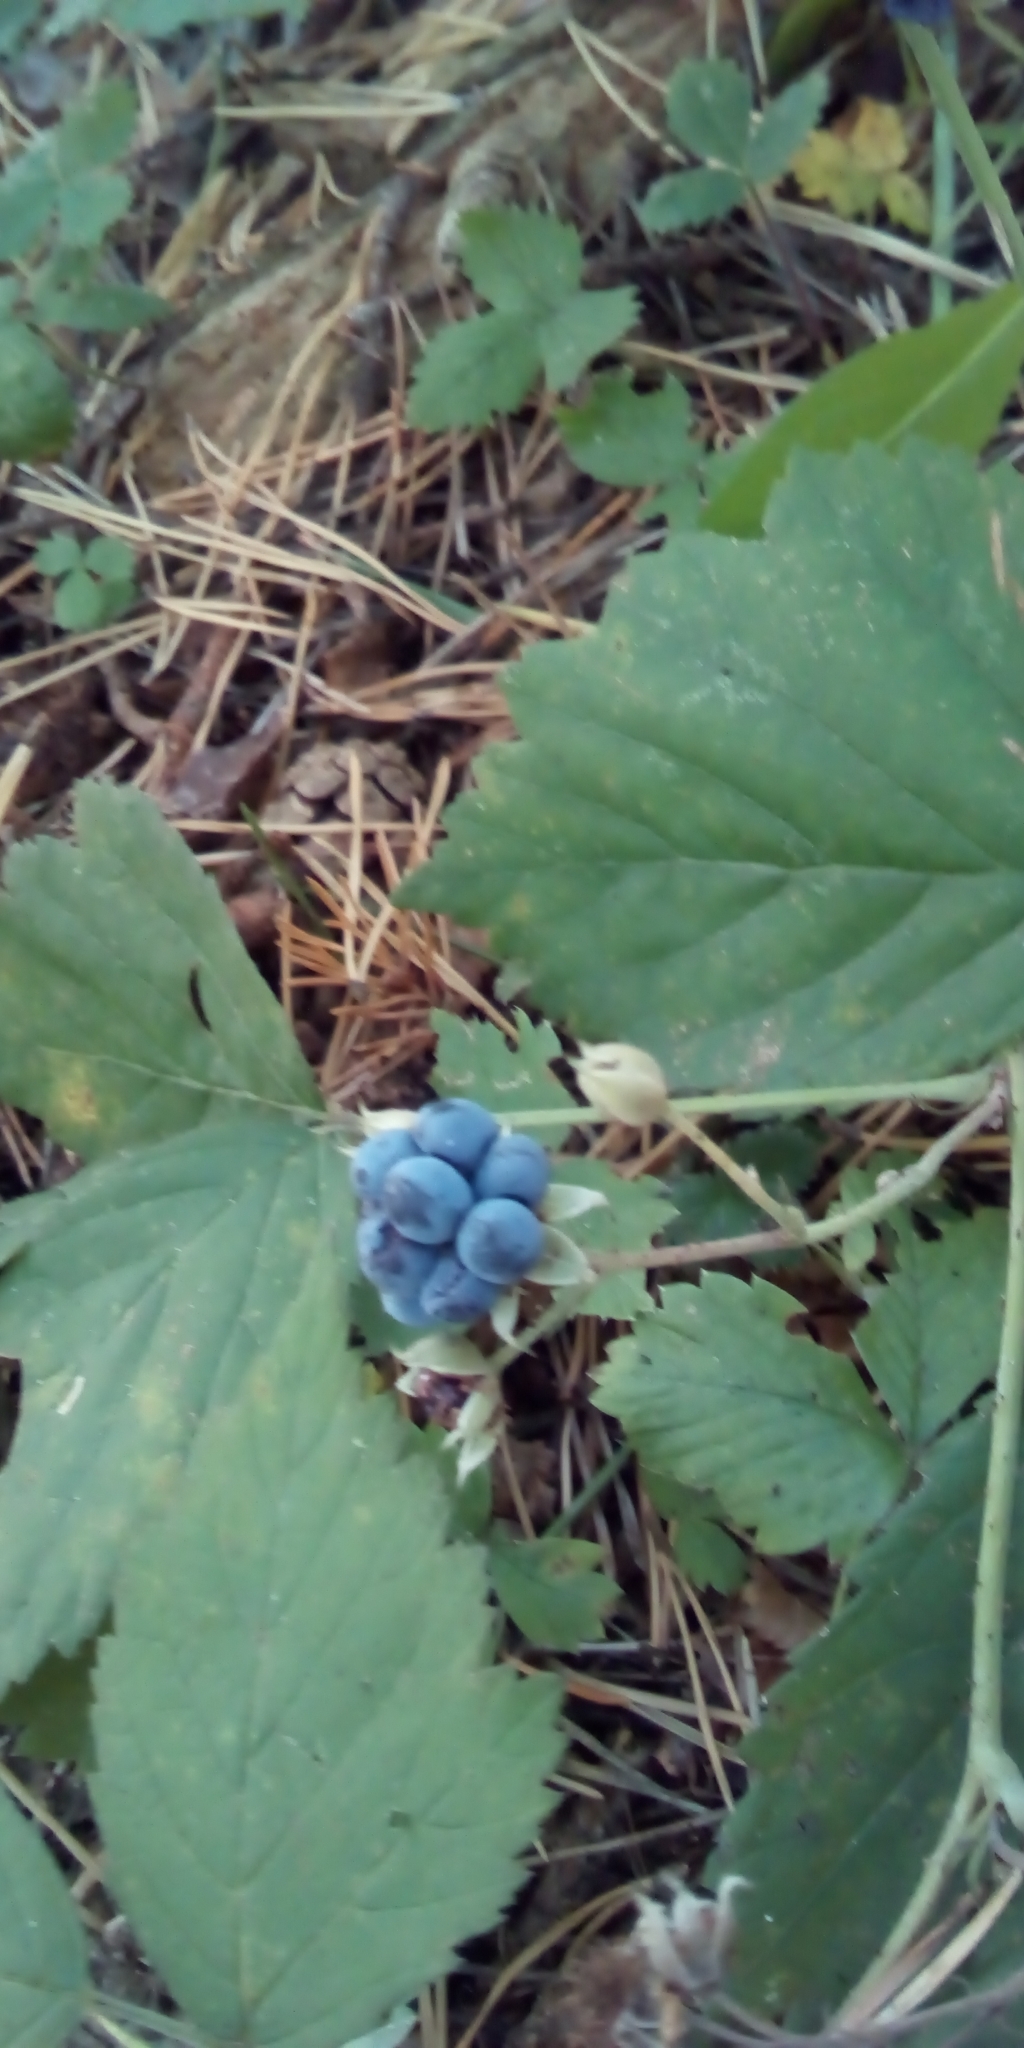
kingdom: Plantae
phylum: Tracheophyta
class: Magnoliopsida
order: Rosales
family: Rosaceae
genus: Rubus
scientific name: Rubus caesius
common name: Dewberry
